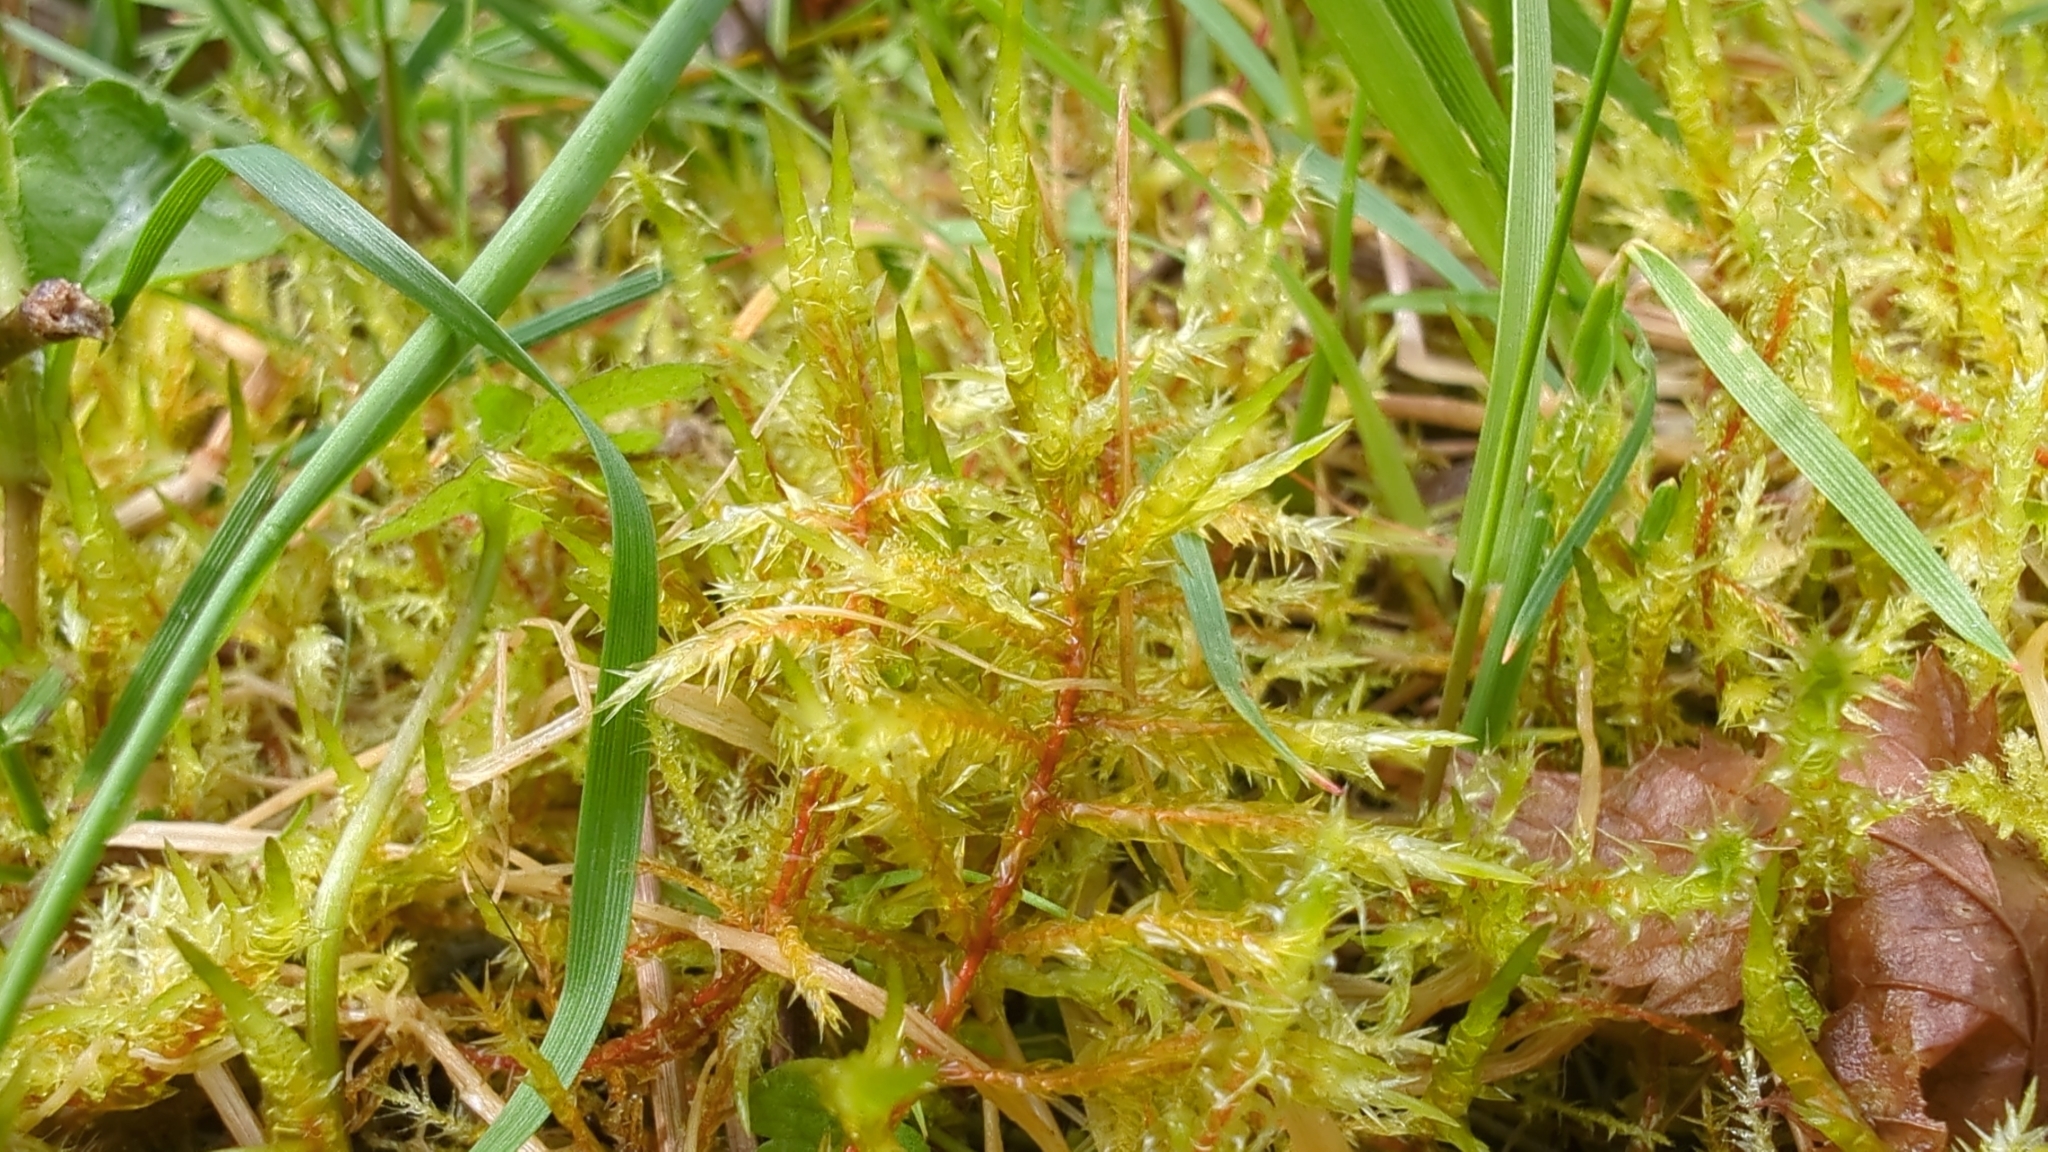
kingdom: Plantae
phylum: Bryophyta
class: Bryopsida
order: Hypnales
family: Pylaisiaceae
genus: Calliergonella
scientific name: Calliergonella cuspidata
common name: Common large wetland moss
